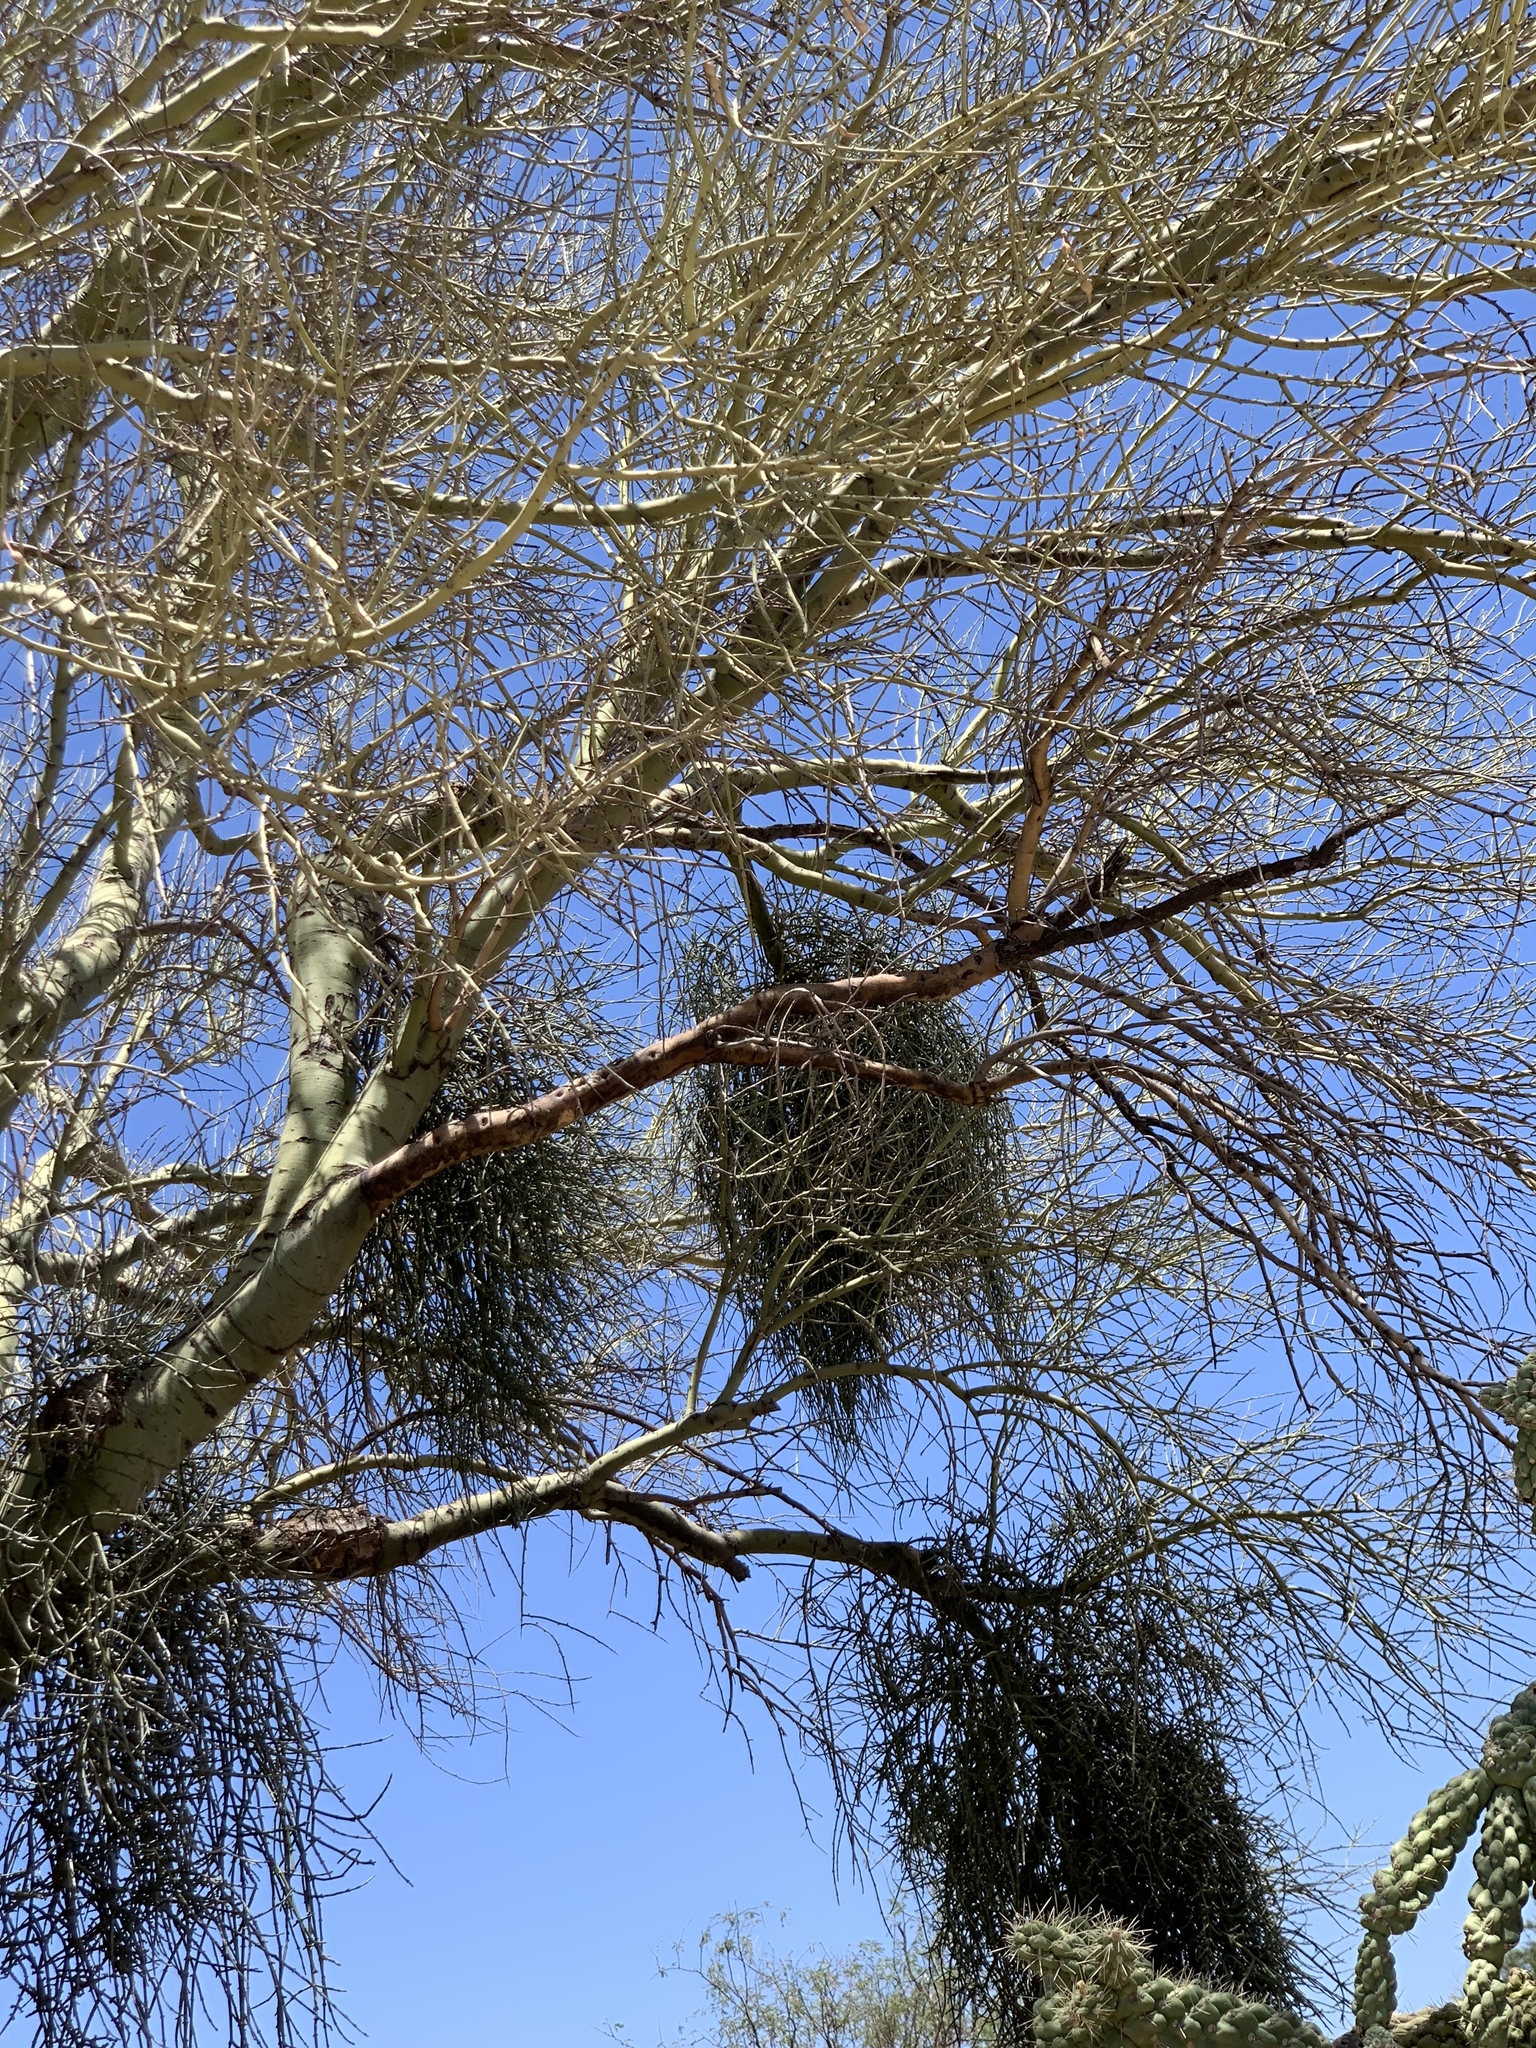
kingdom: Plantae
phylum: Tracheophyta
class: Magnoliopsida
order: Santalales
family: Viscaceae
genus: Phoradendron
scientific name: Phoradendron californicum
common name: Acacia mistletoe
